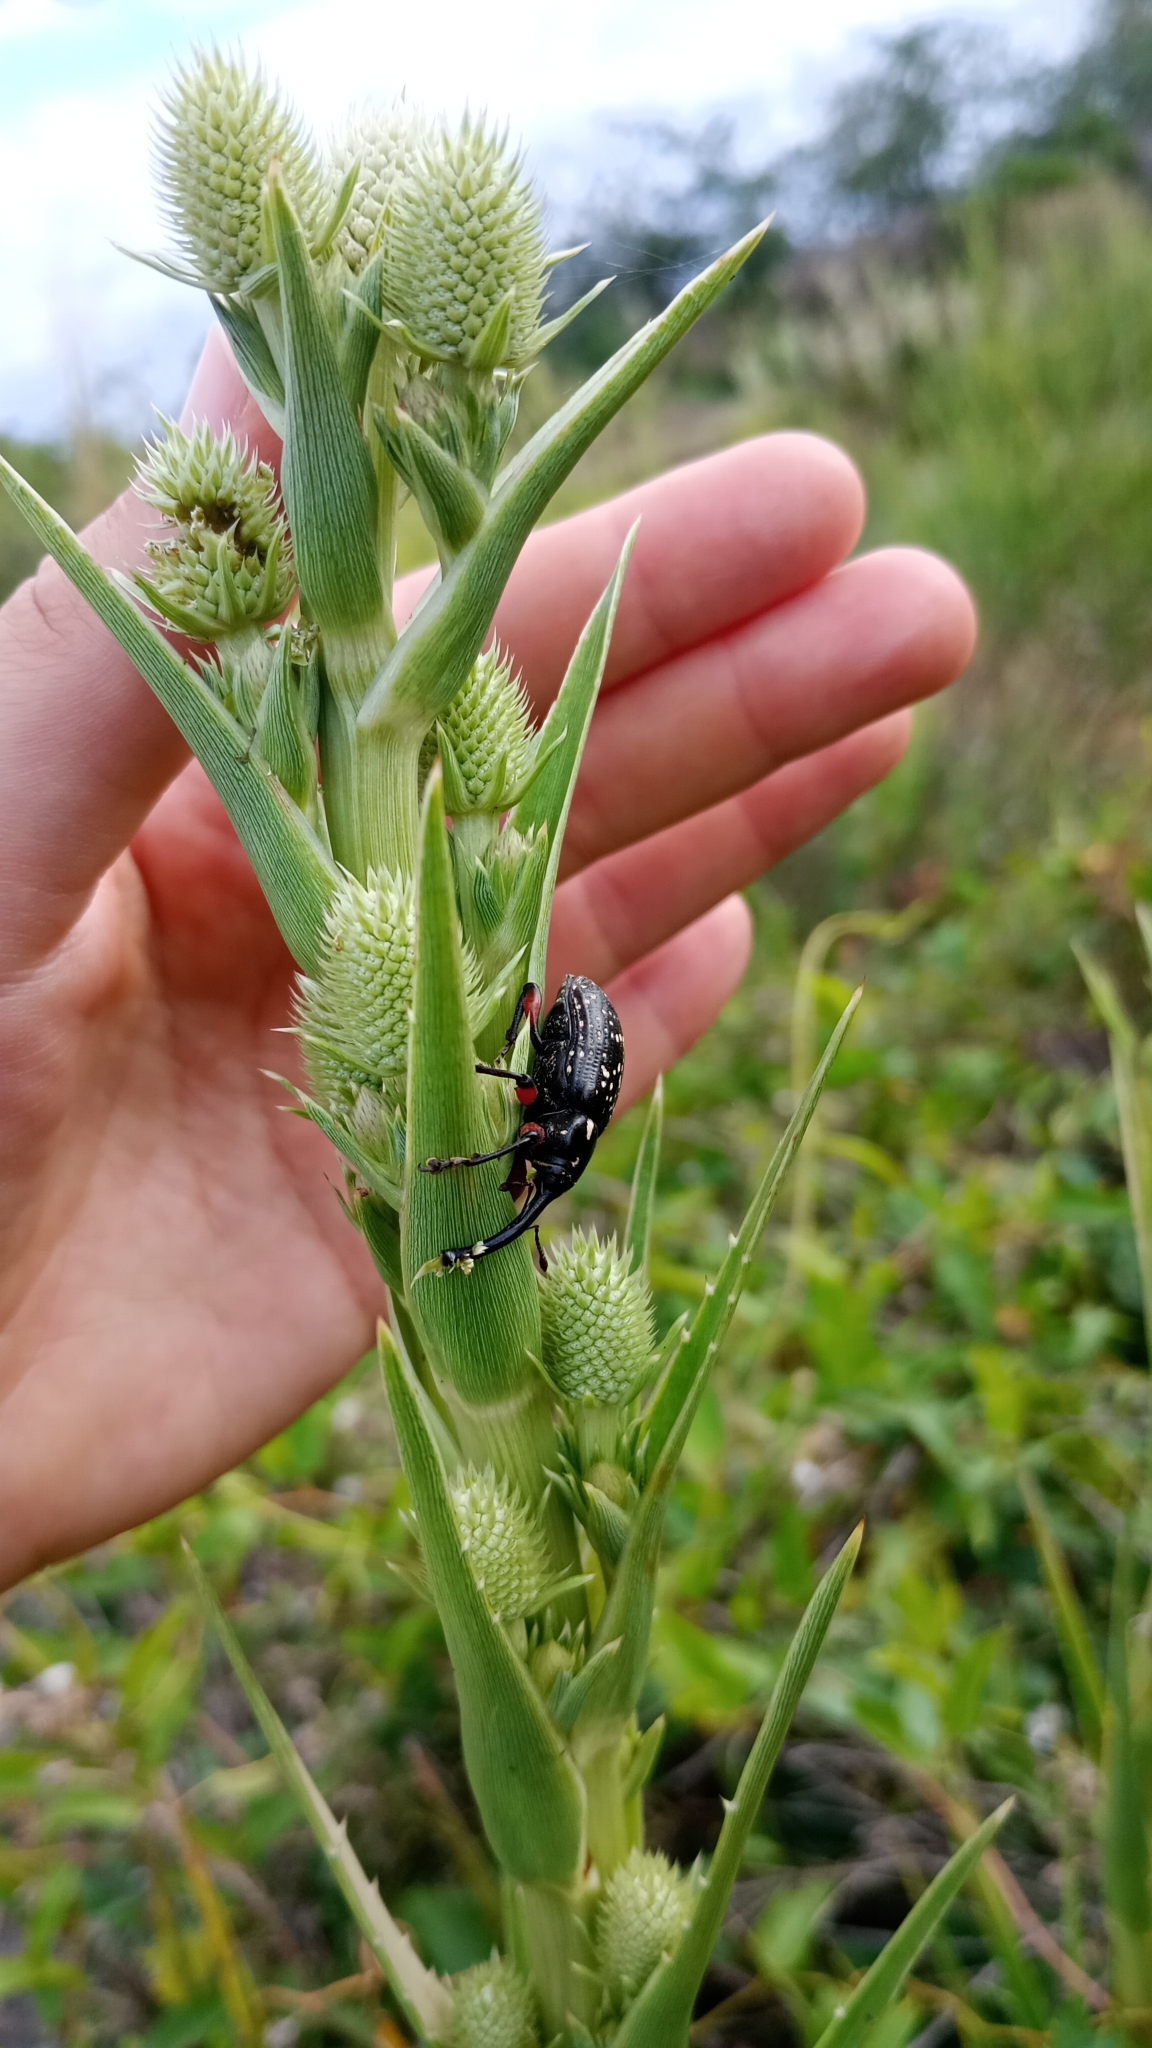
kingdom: Animalia
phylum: Arthropoda
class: Insecta
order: Coleoptera
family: Curculionidae
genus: Heilipodus
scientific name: Heilipodus erythropus
